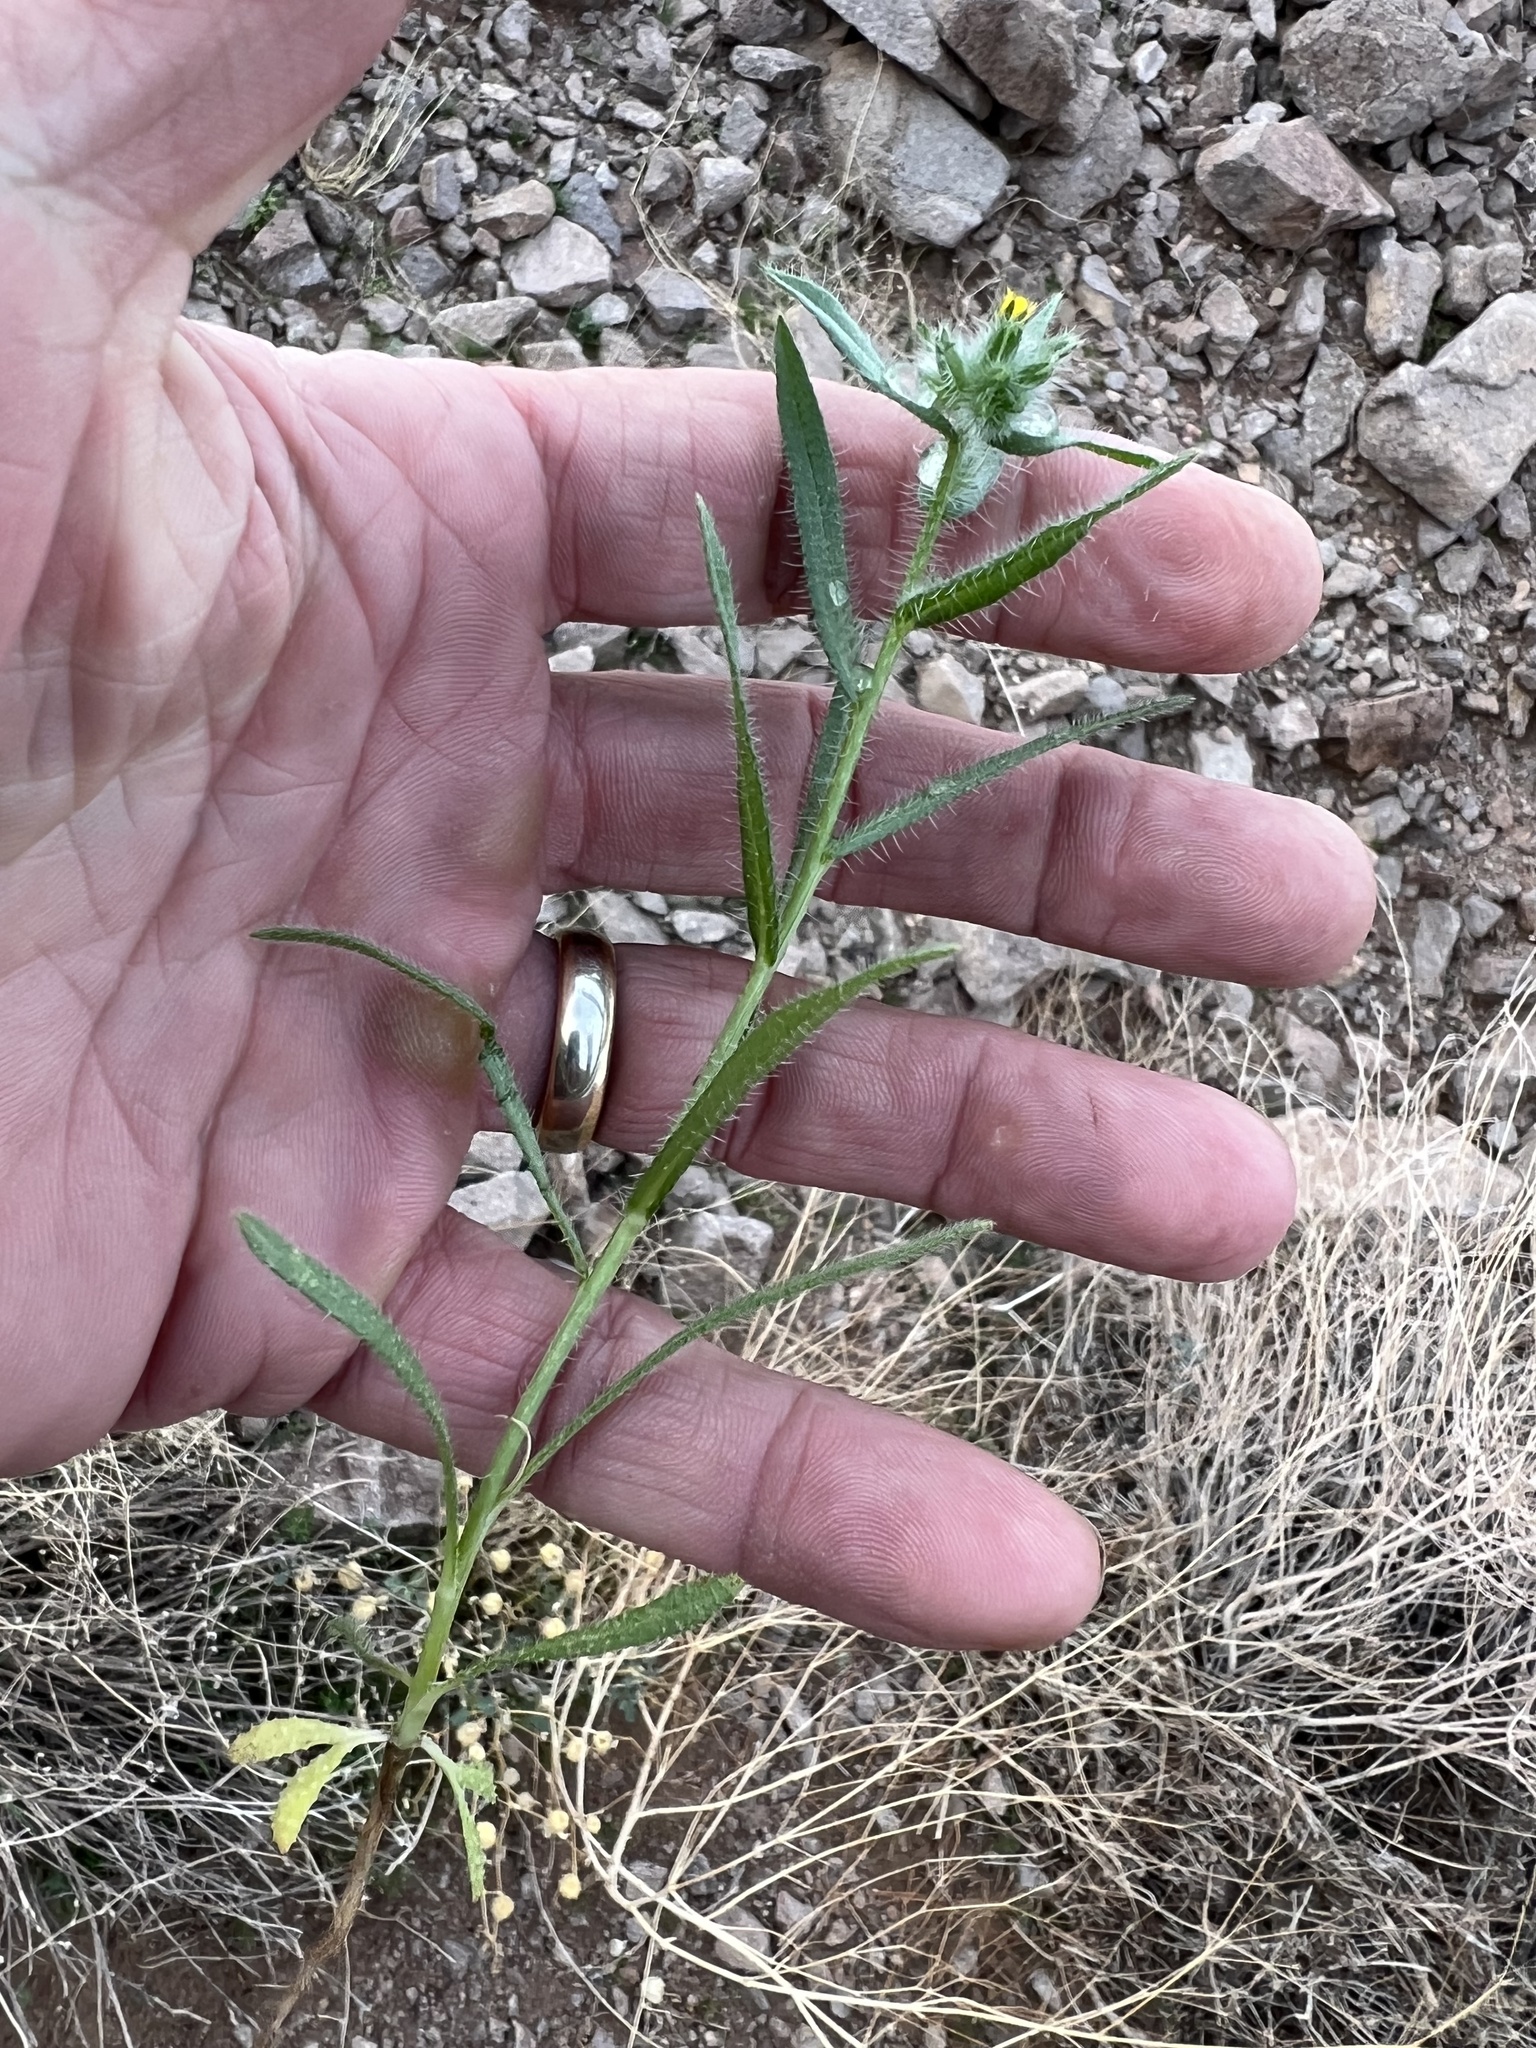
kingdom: Plantae
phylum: Tracheophyta
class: Magnoliopsida
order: Boraginales
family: Boraginaceae
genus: Amsinckia
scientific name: Amsinckia tessellata
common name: Tessellate fiddleneck
